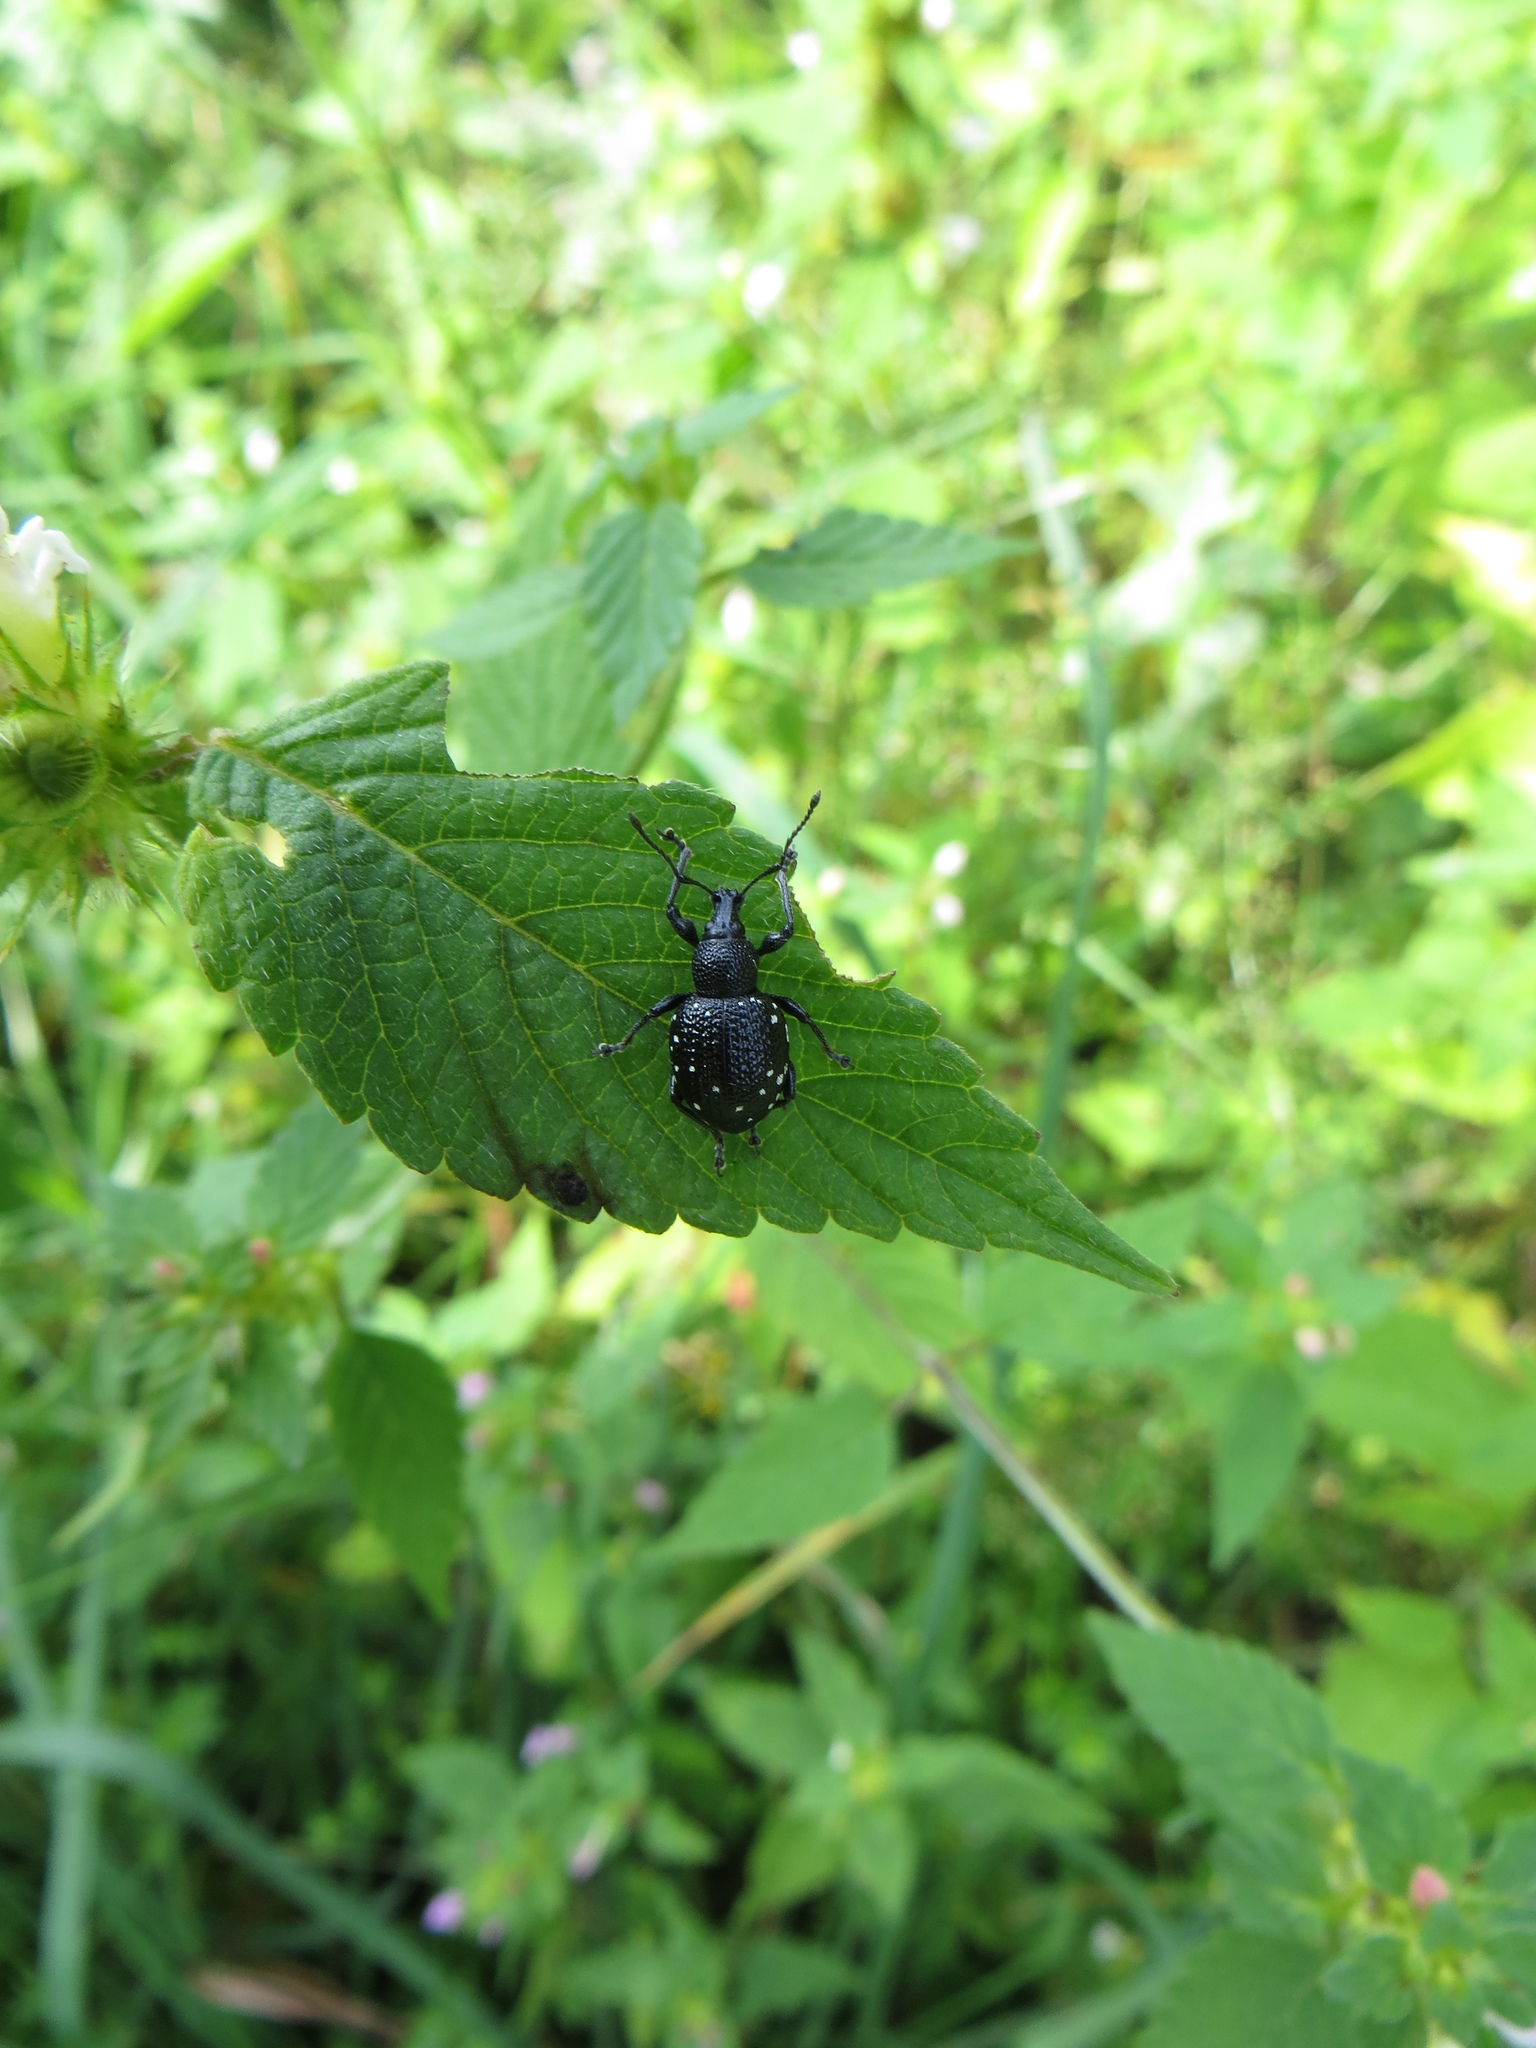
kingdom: Animalia
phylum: Arthropoda
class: Insecta
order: Coleoptera
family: Curculionidae
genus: Otiorhynchus
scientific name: Otiorhynchus gemmatus
